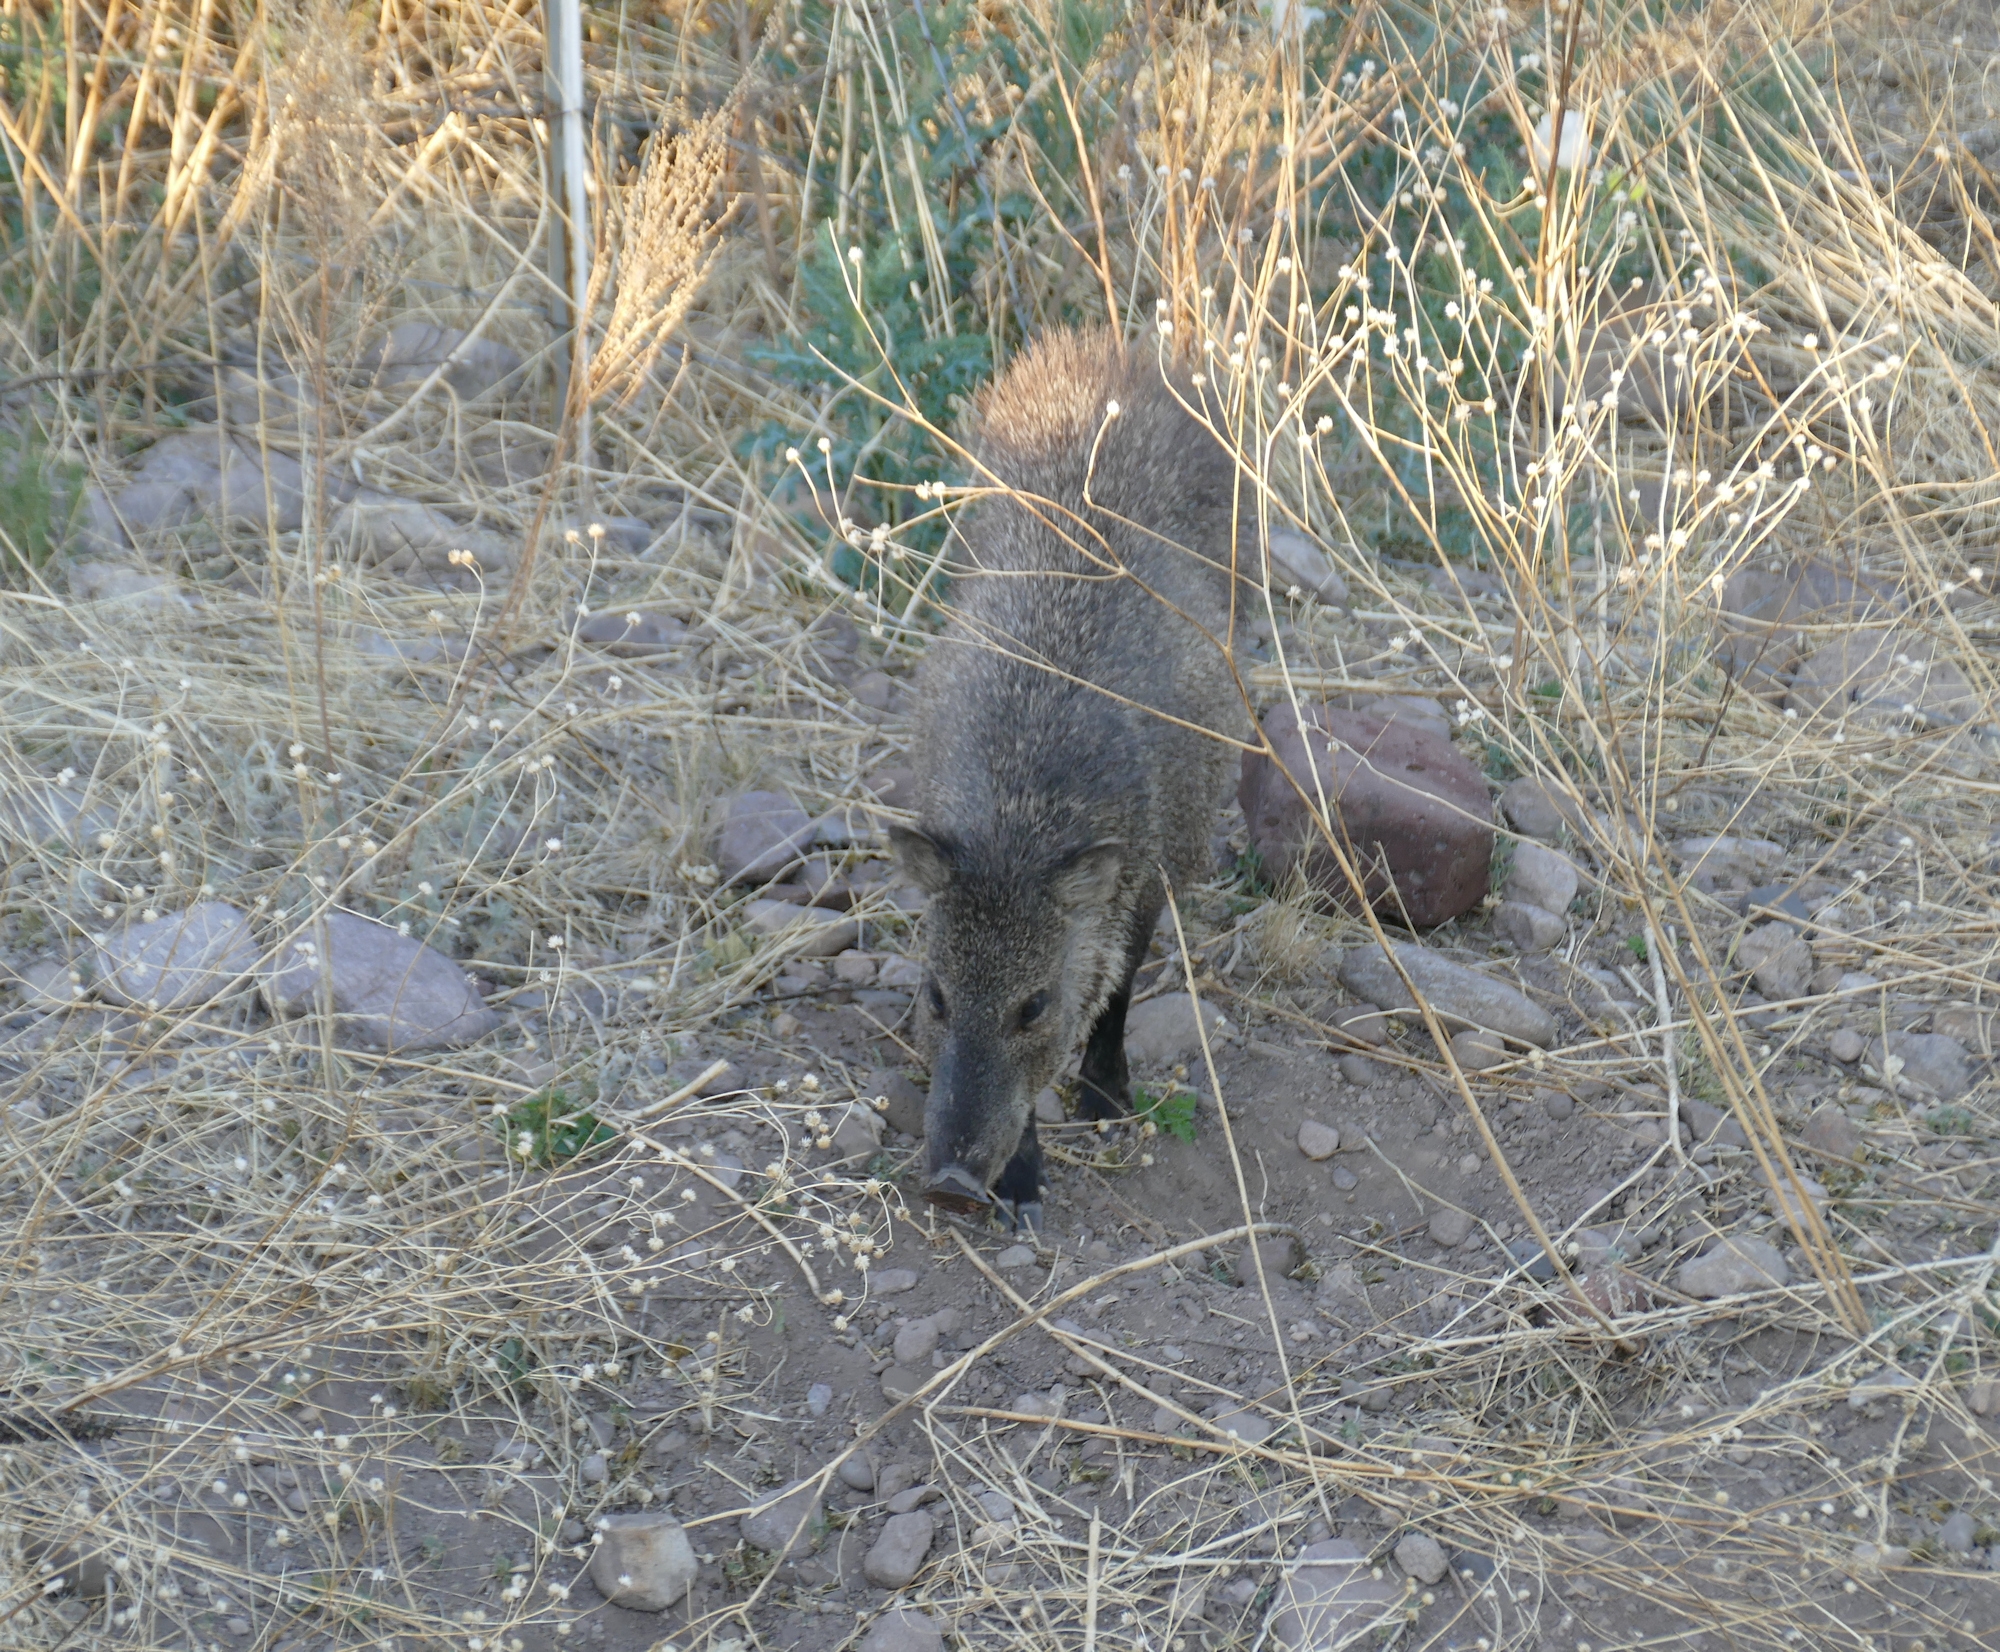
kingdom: Animalia
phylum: Chordata
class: Mammalia
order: Artiodactyla
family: Tayassuidae
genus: Pecari
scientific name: Pecari tajacu
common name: Collared peccary
